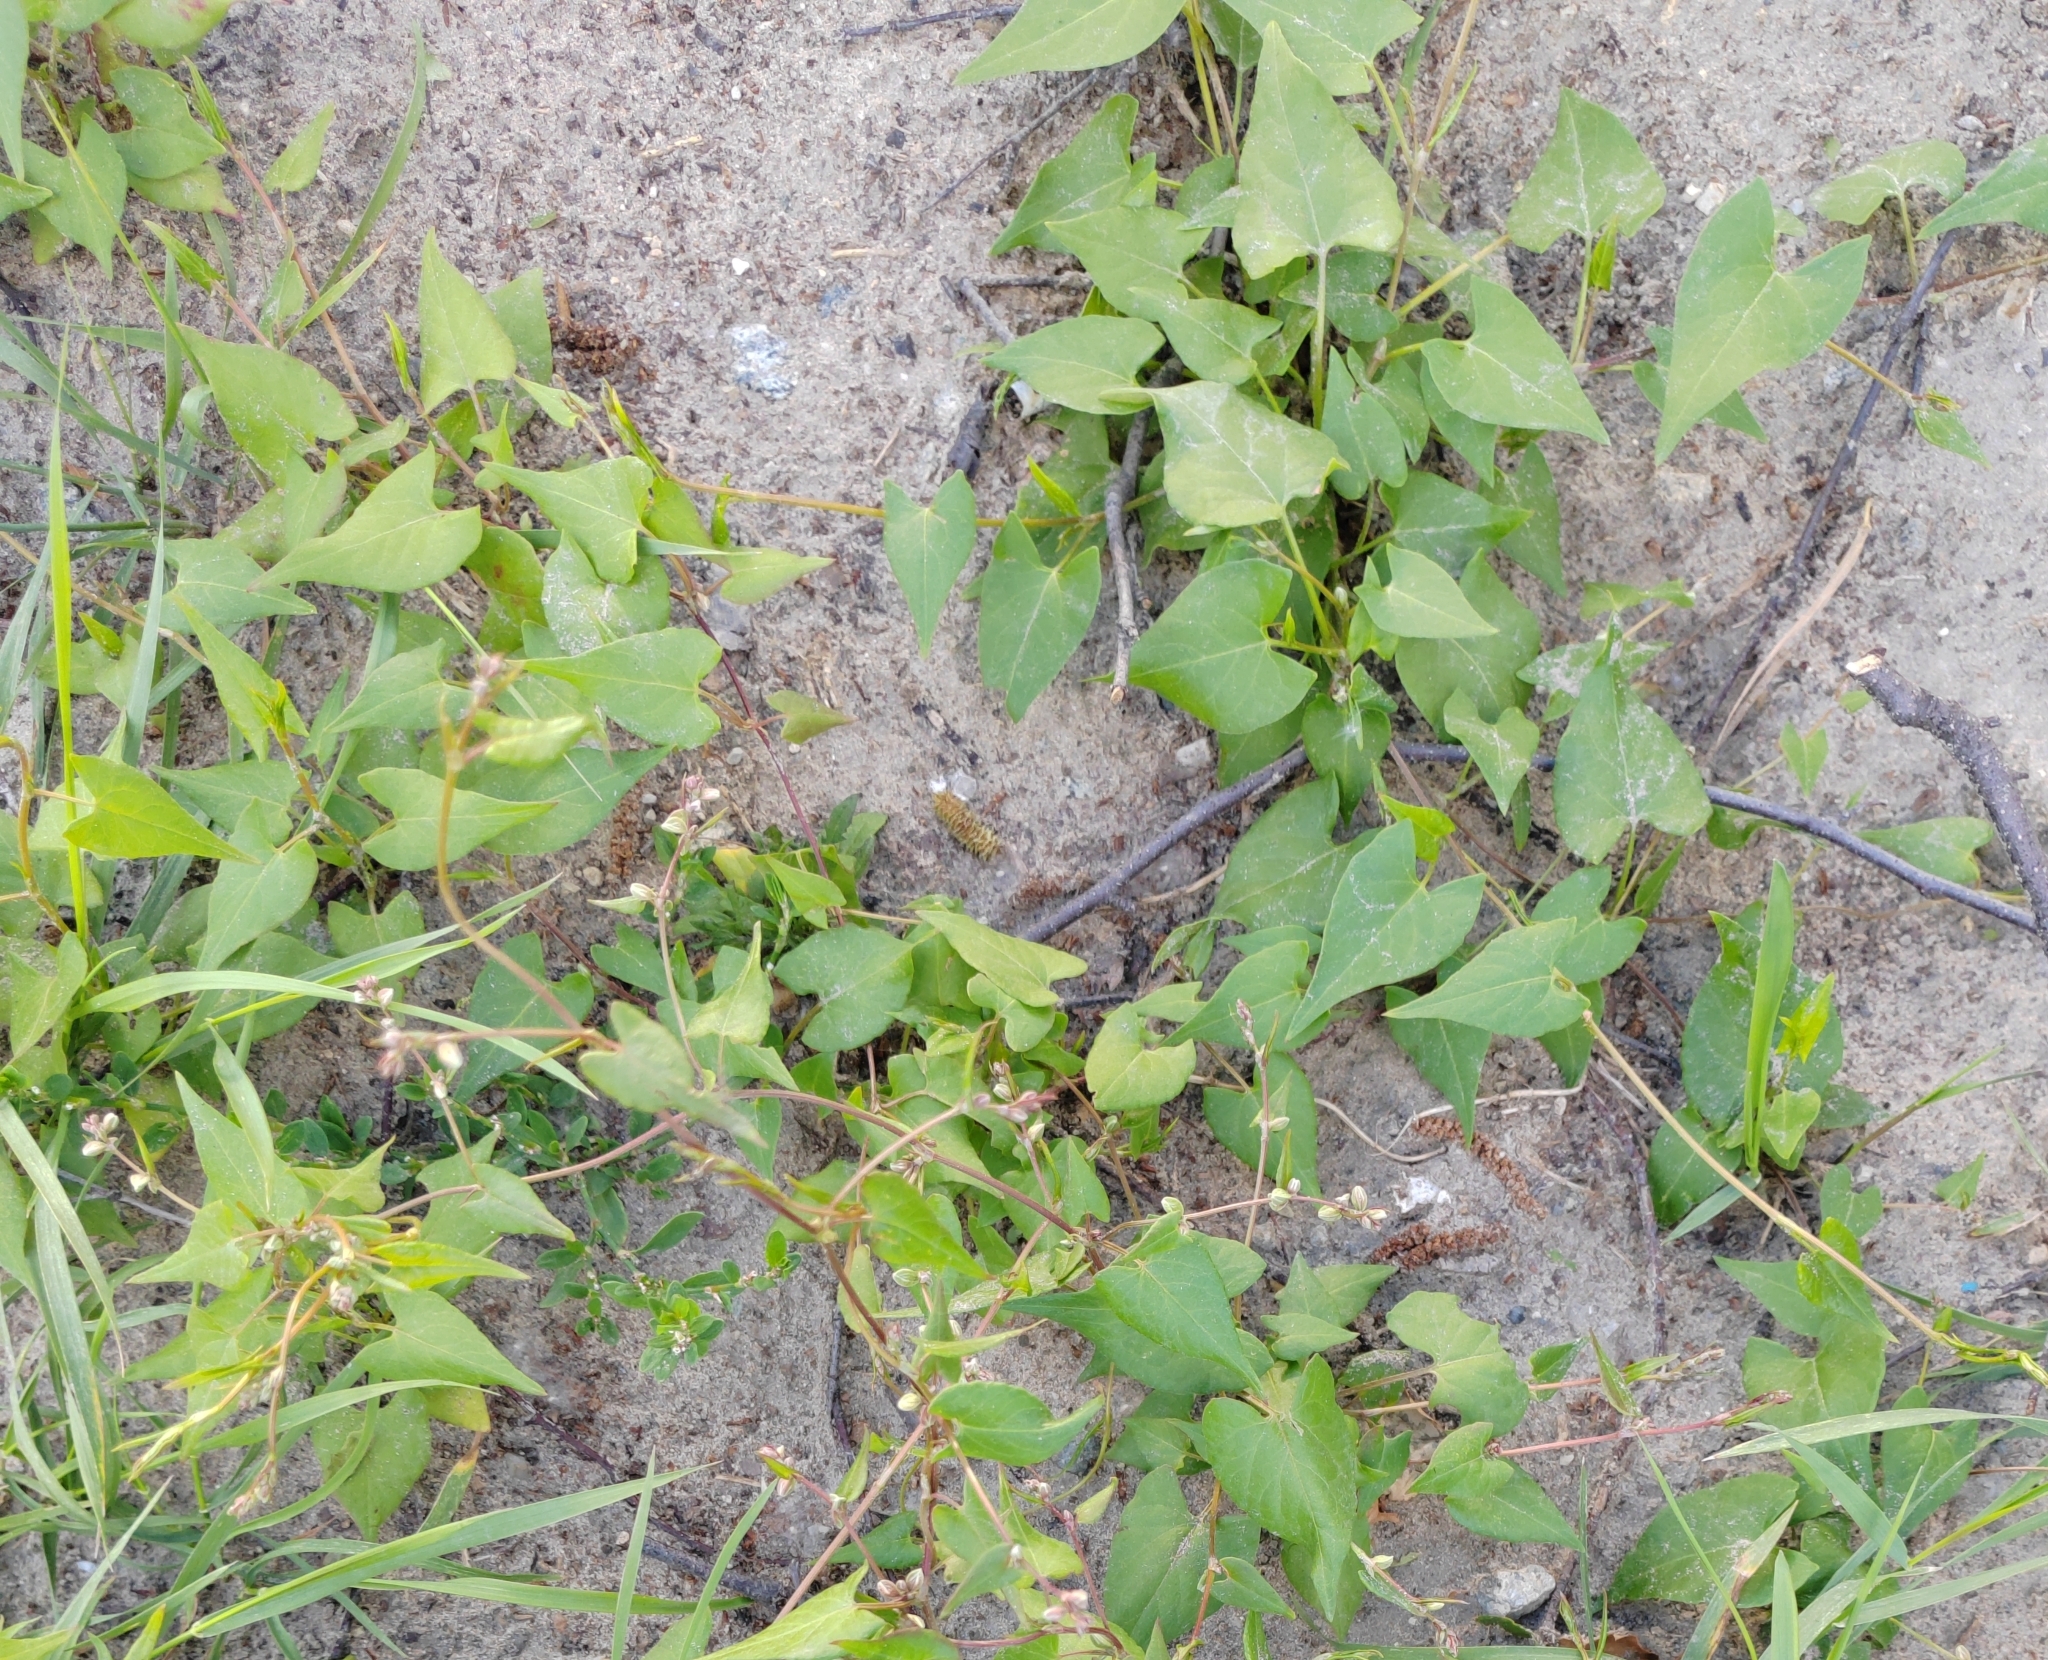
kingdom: Plantae
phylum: Tracheophyta
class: Magnoliopsida
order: Caryophyllales
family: Polygonaceae
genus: Fallopia
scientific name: Fallopia convolvulus
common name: Black bindweed
